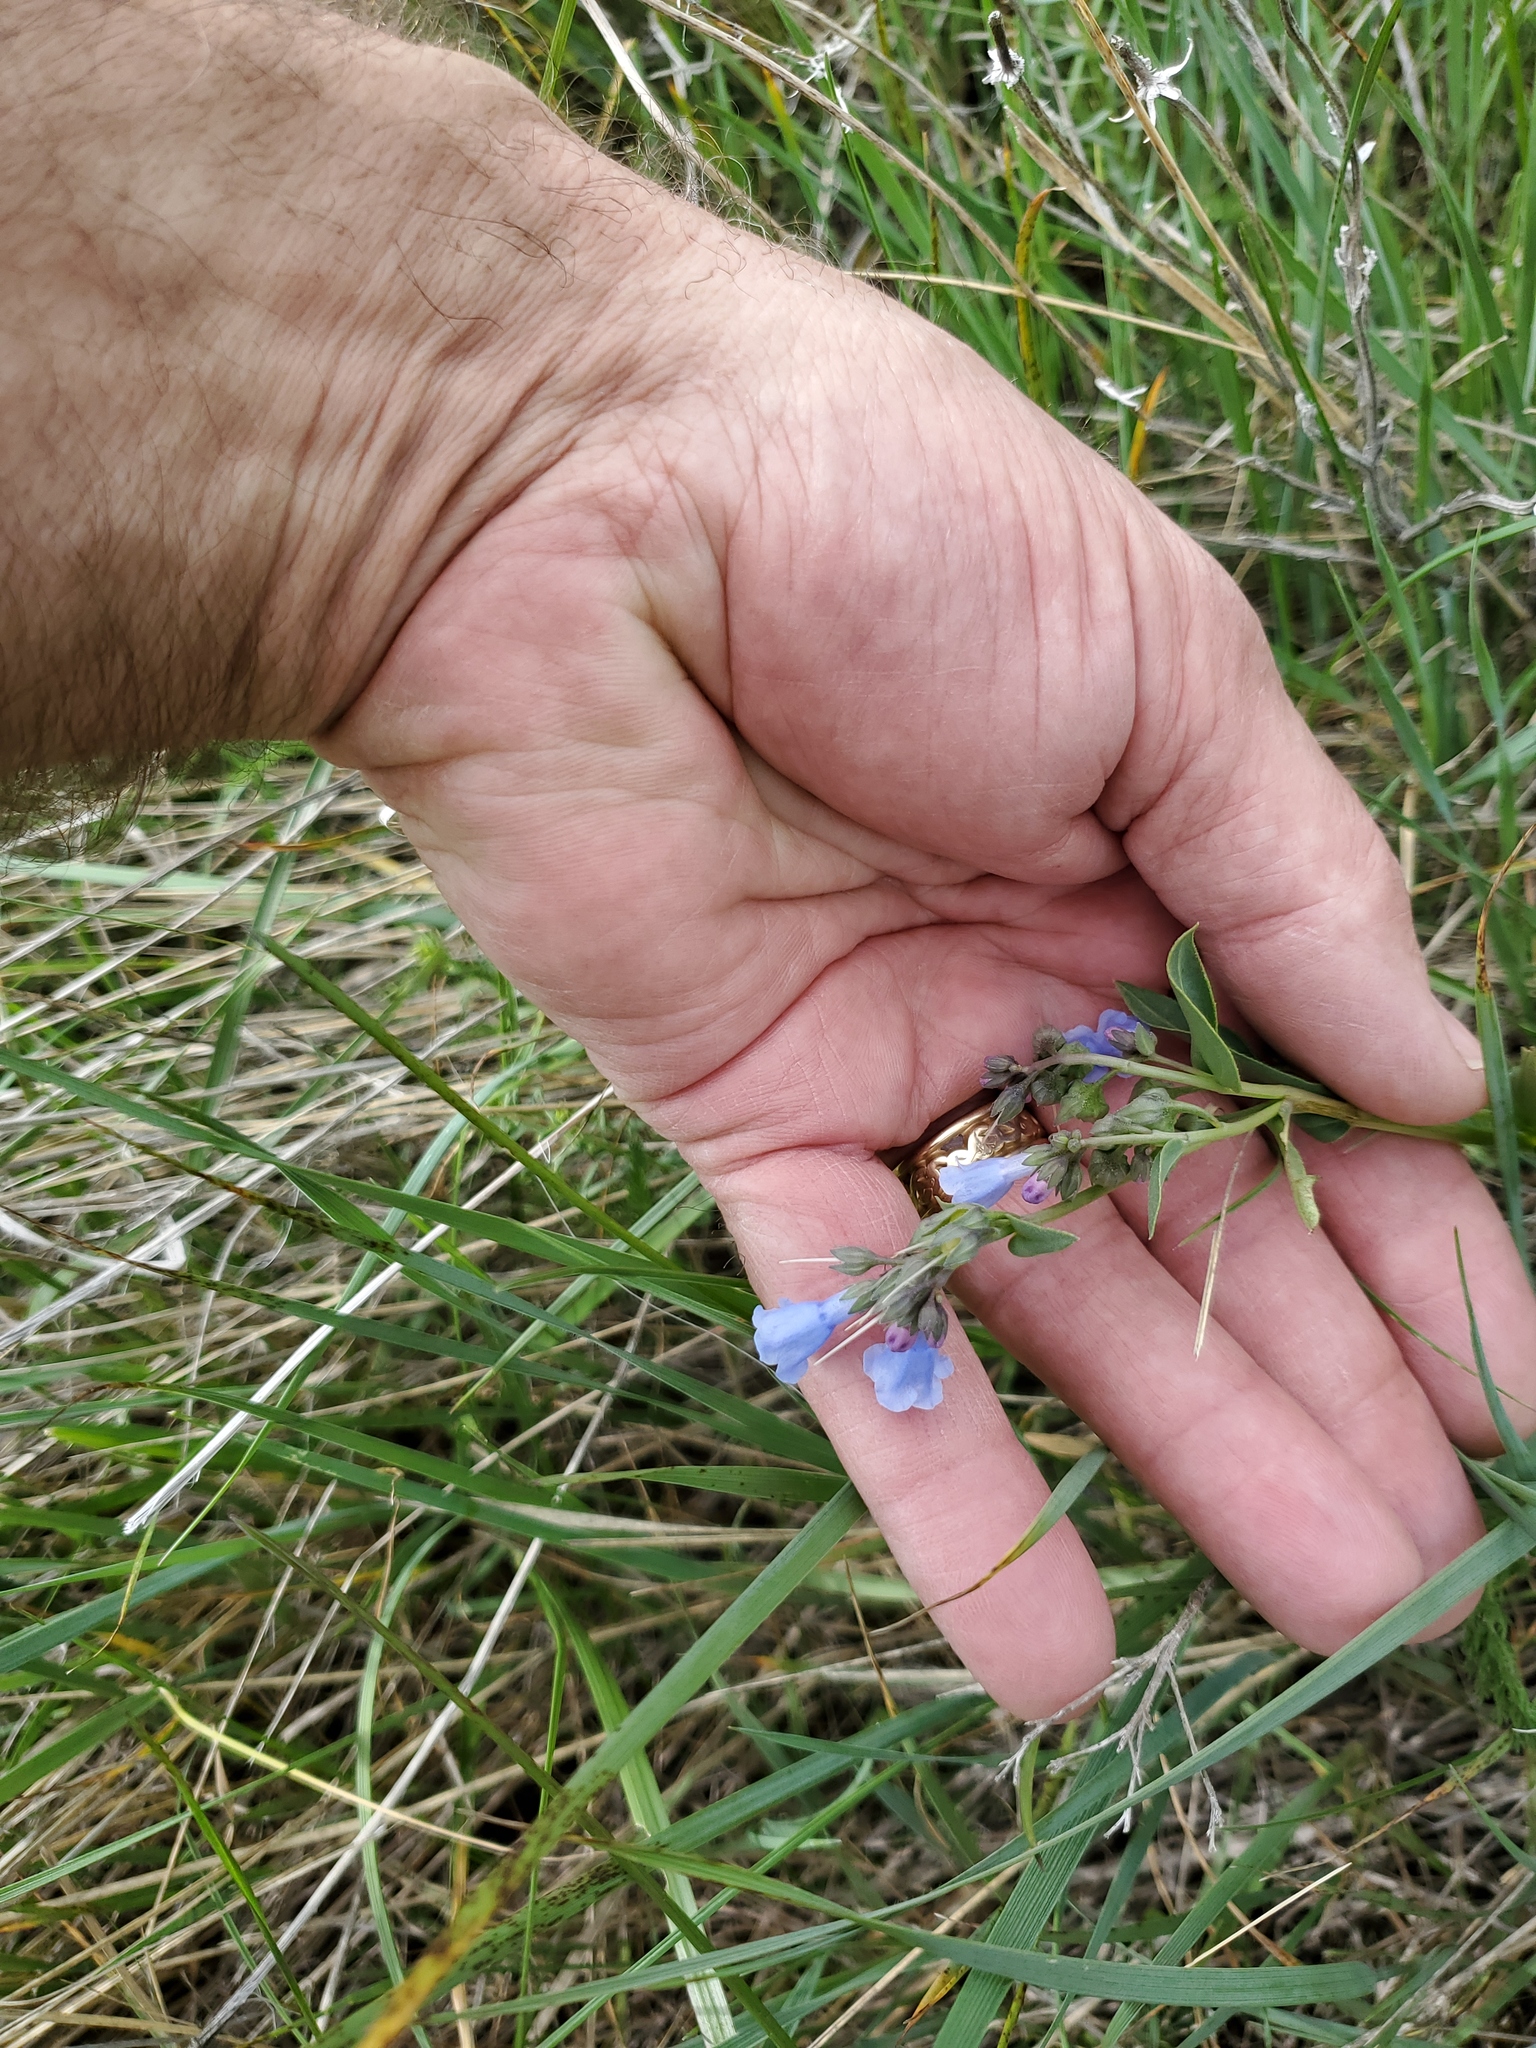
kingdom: Plantae
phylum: Tracheophyta
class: Magnoliopsida
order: Boraginales
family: Boraginaceae
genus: Mertensia
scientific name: Mertensia lanceolata
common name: Lance-leaved bluebells
